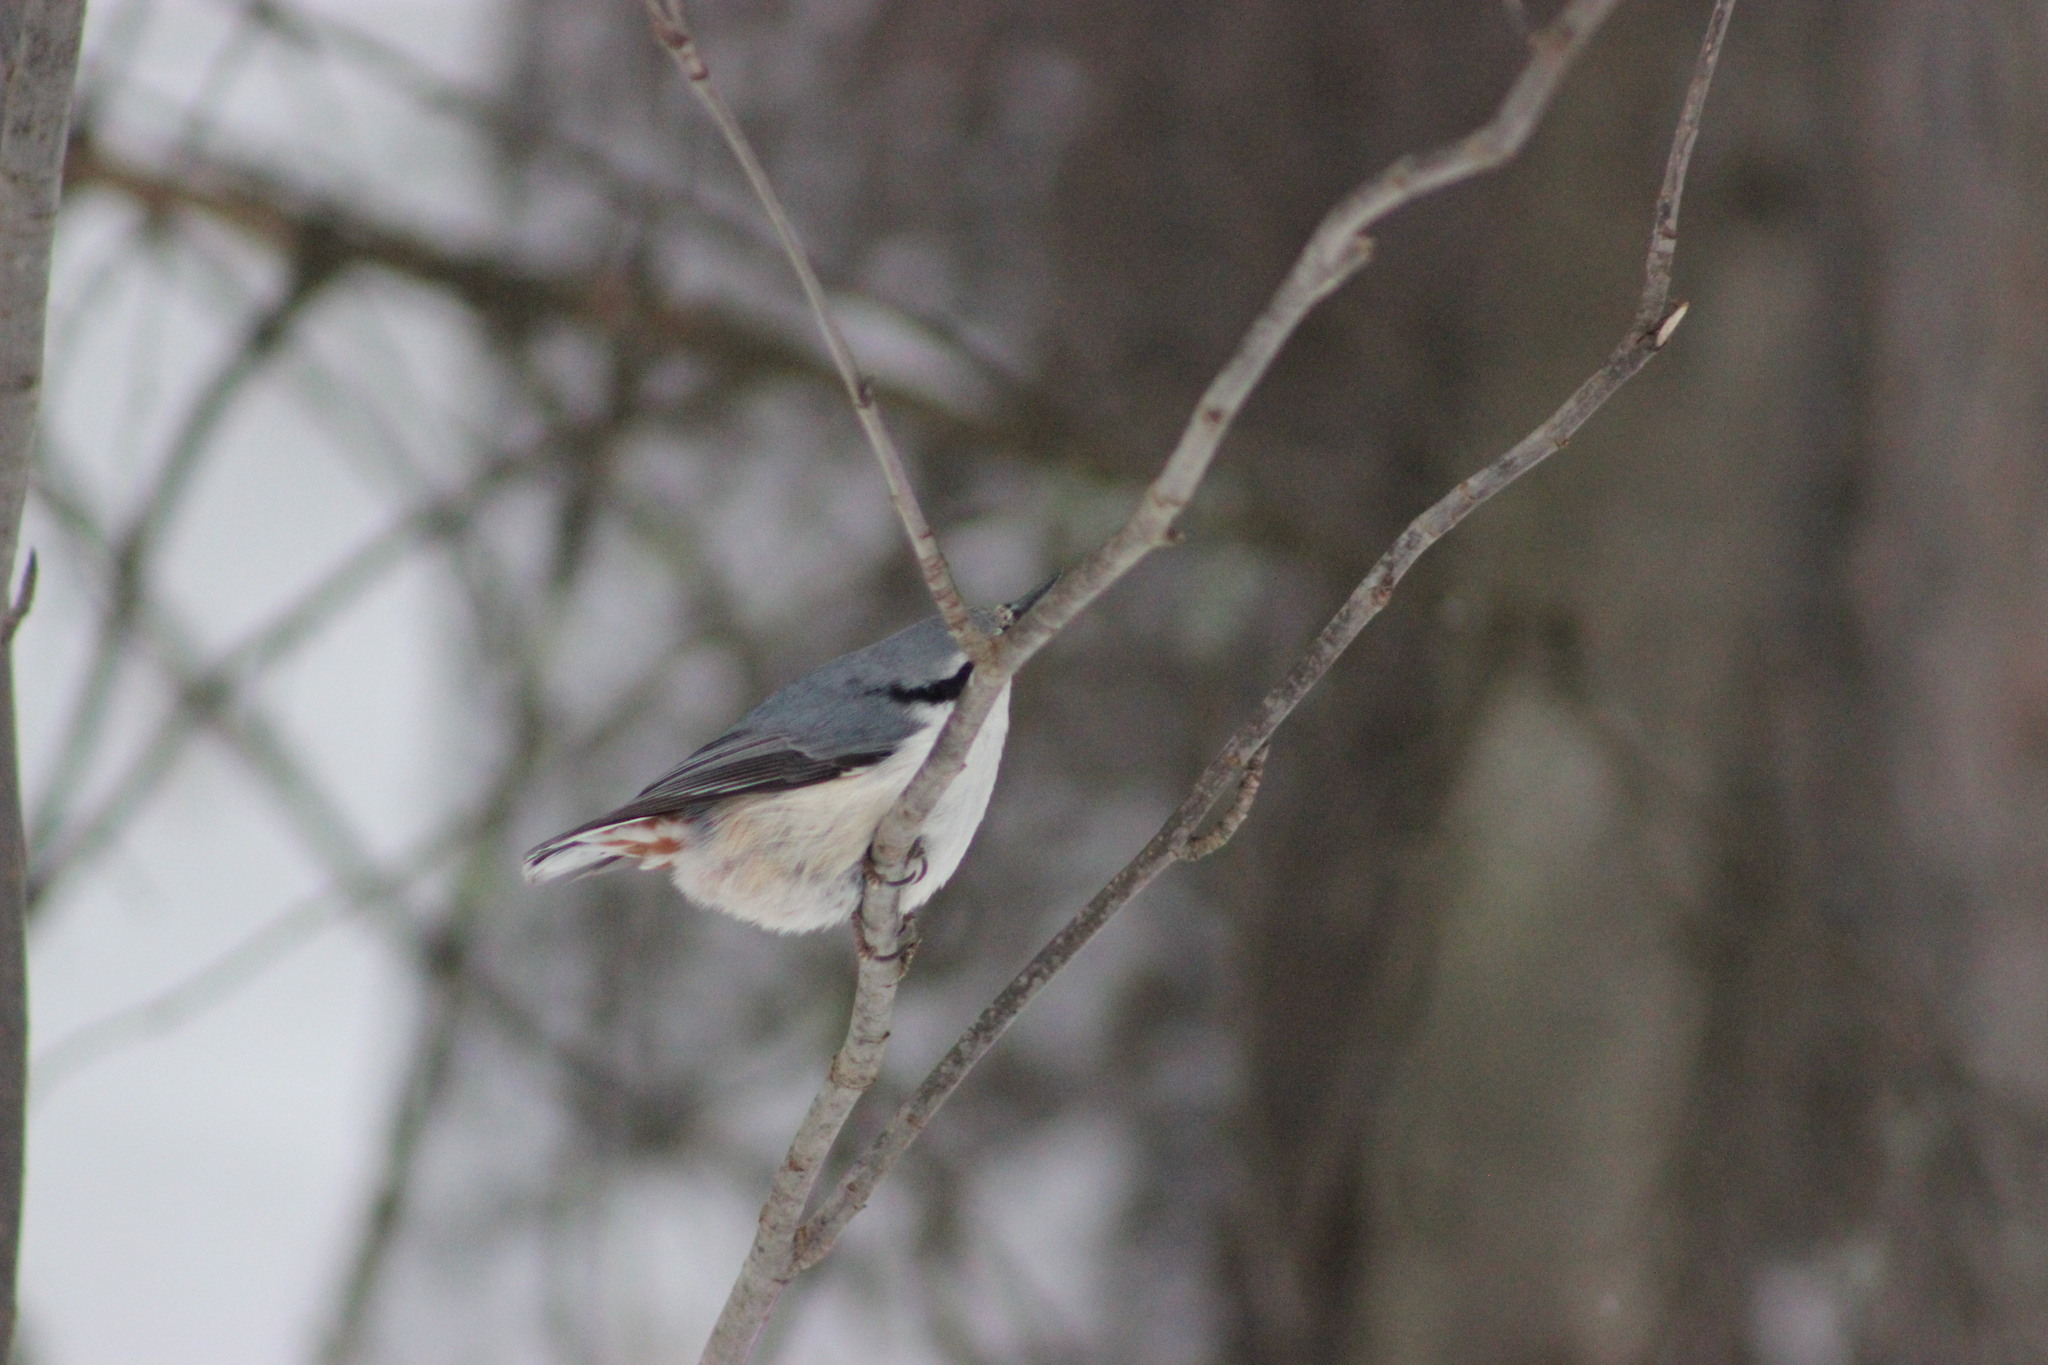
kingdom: Animalia
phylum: Chordata
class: Aves
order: Passeriformes
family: Sittidae
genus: Sitta
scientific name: Sitta europaea
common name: Eurasian nuthatch
